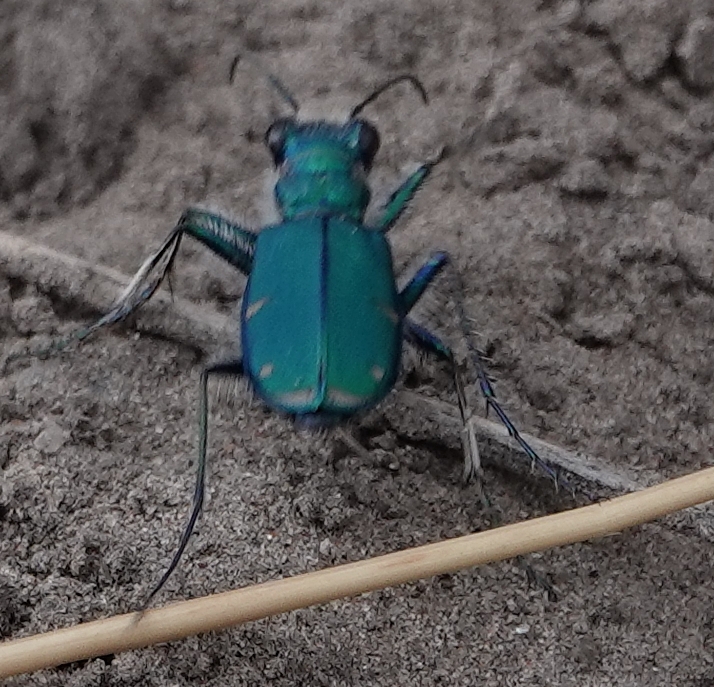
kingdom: Animalia
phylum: Arthropoda
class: Insecta
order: Coleoptera
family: Carabidae
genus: Cicindela
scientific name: Cicindela denverensis
